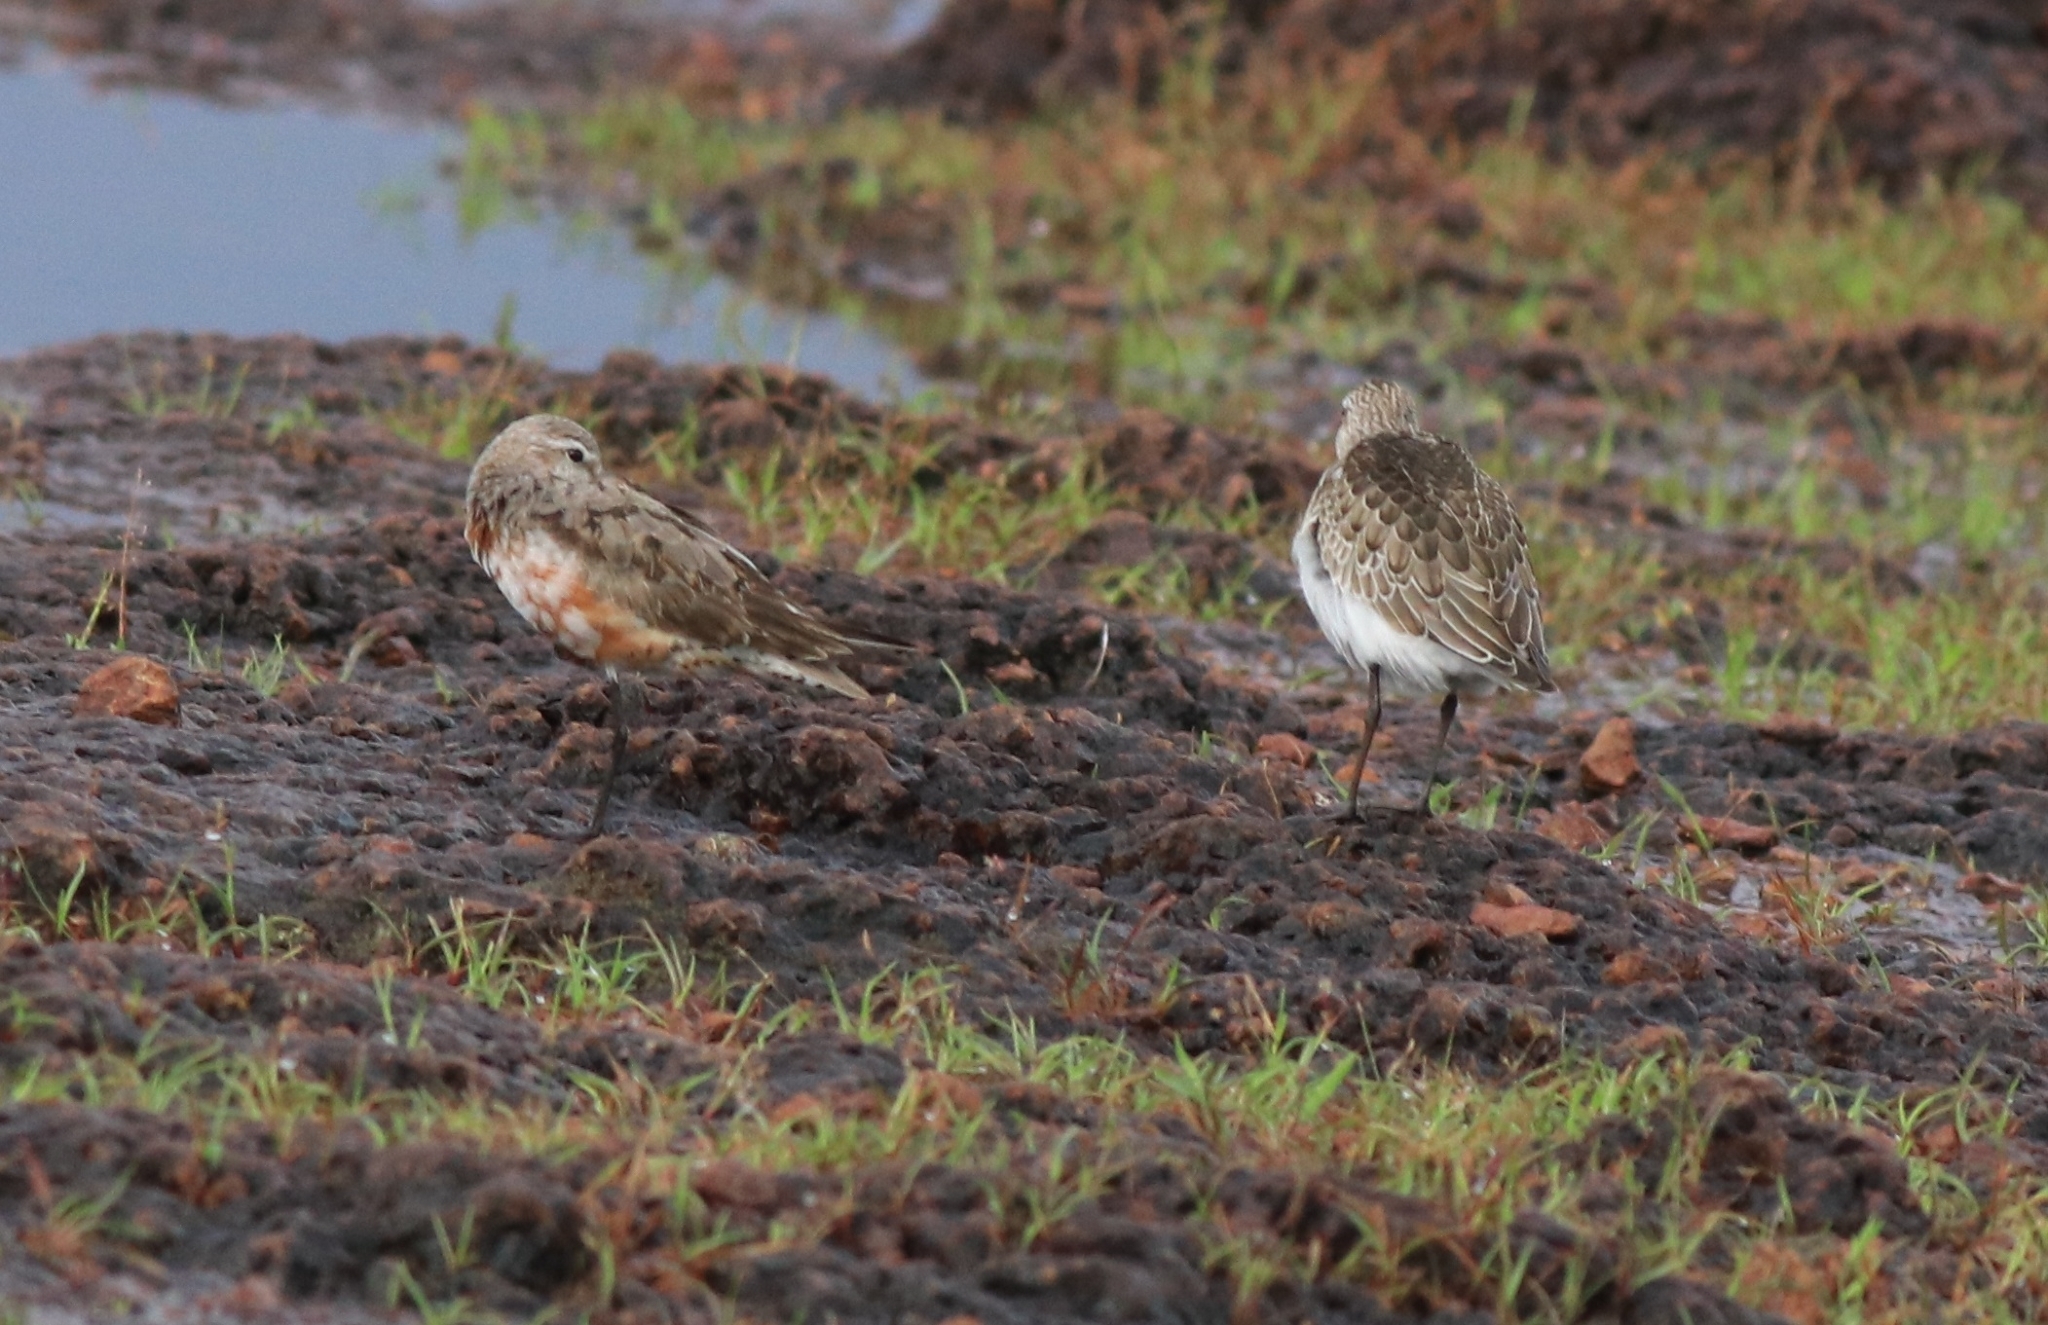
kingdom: Animalia
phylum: Chordata
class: Aves
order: Charadriiformes
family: Scolopacidae
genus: Calidris
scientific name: Calidris ferruginea
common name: Curlew sandpiper
